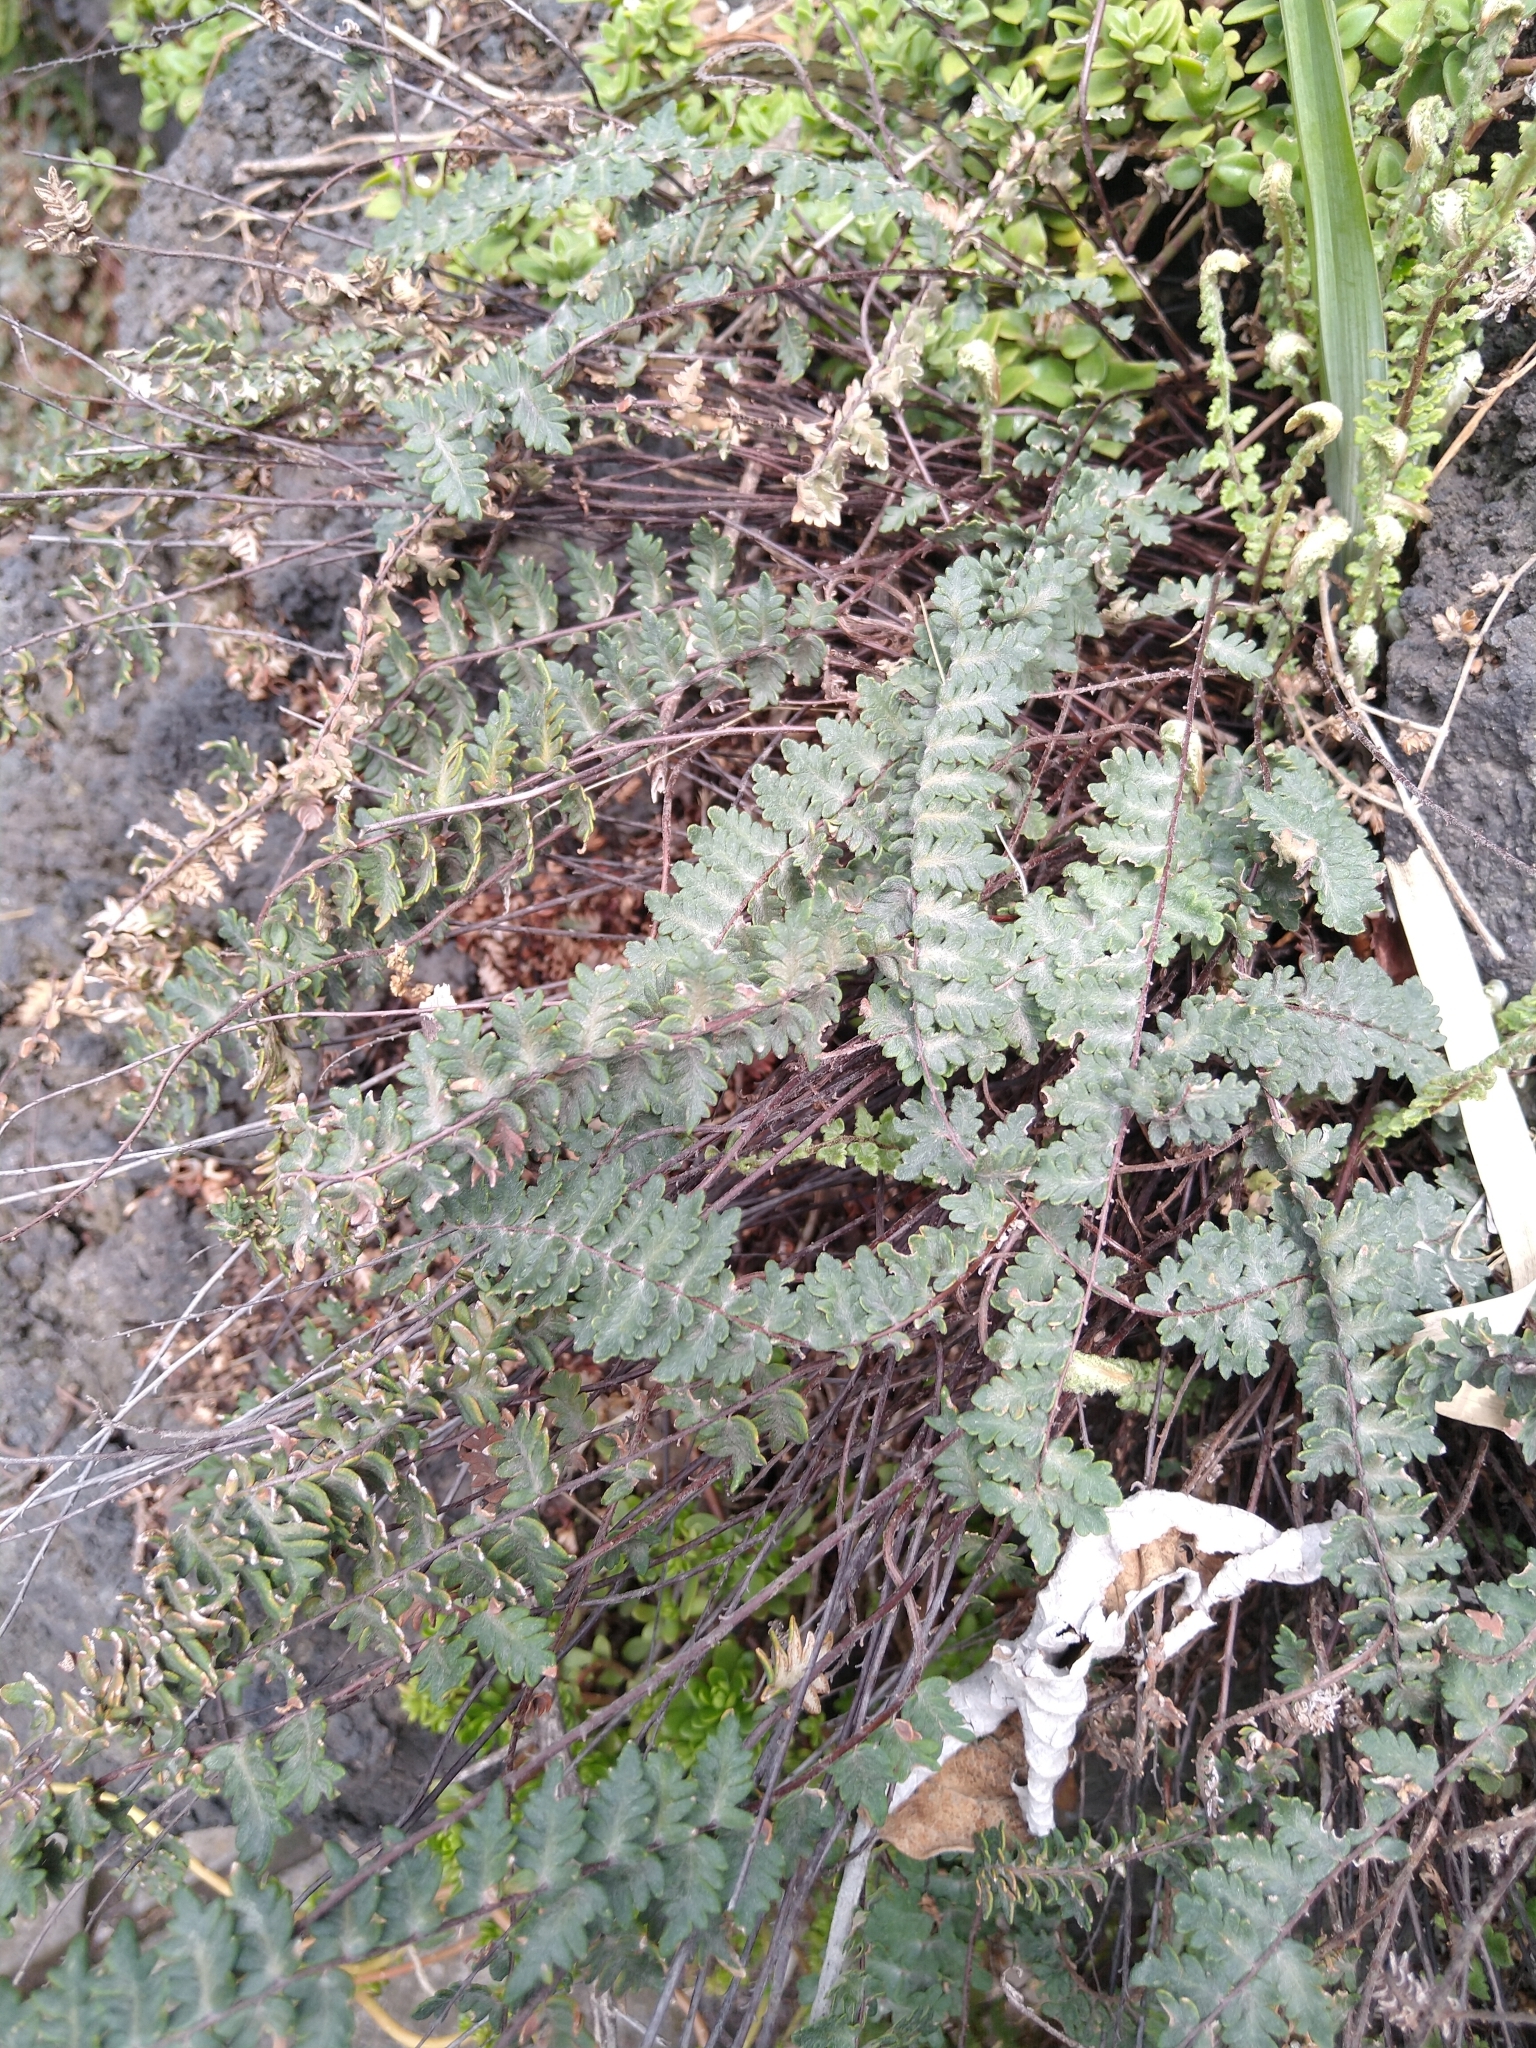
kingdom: Plantae
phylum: Tracheophyta
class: Polypodiopsida
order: Polypodiales
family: Pteridaceae
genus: Myriopteris
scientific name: Myriopteris aurea
